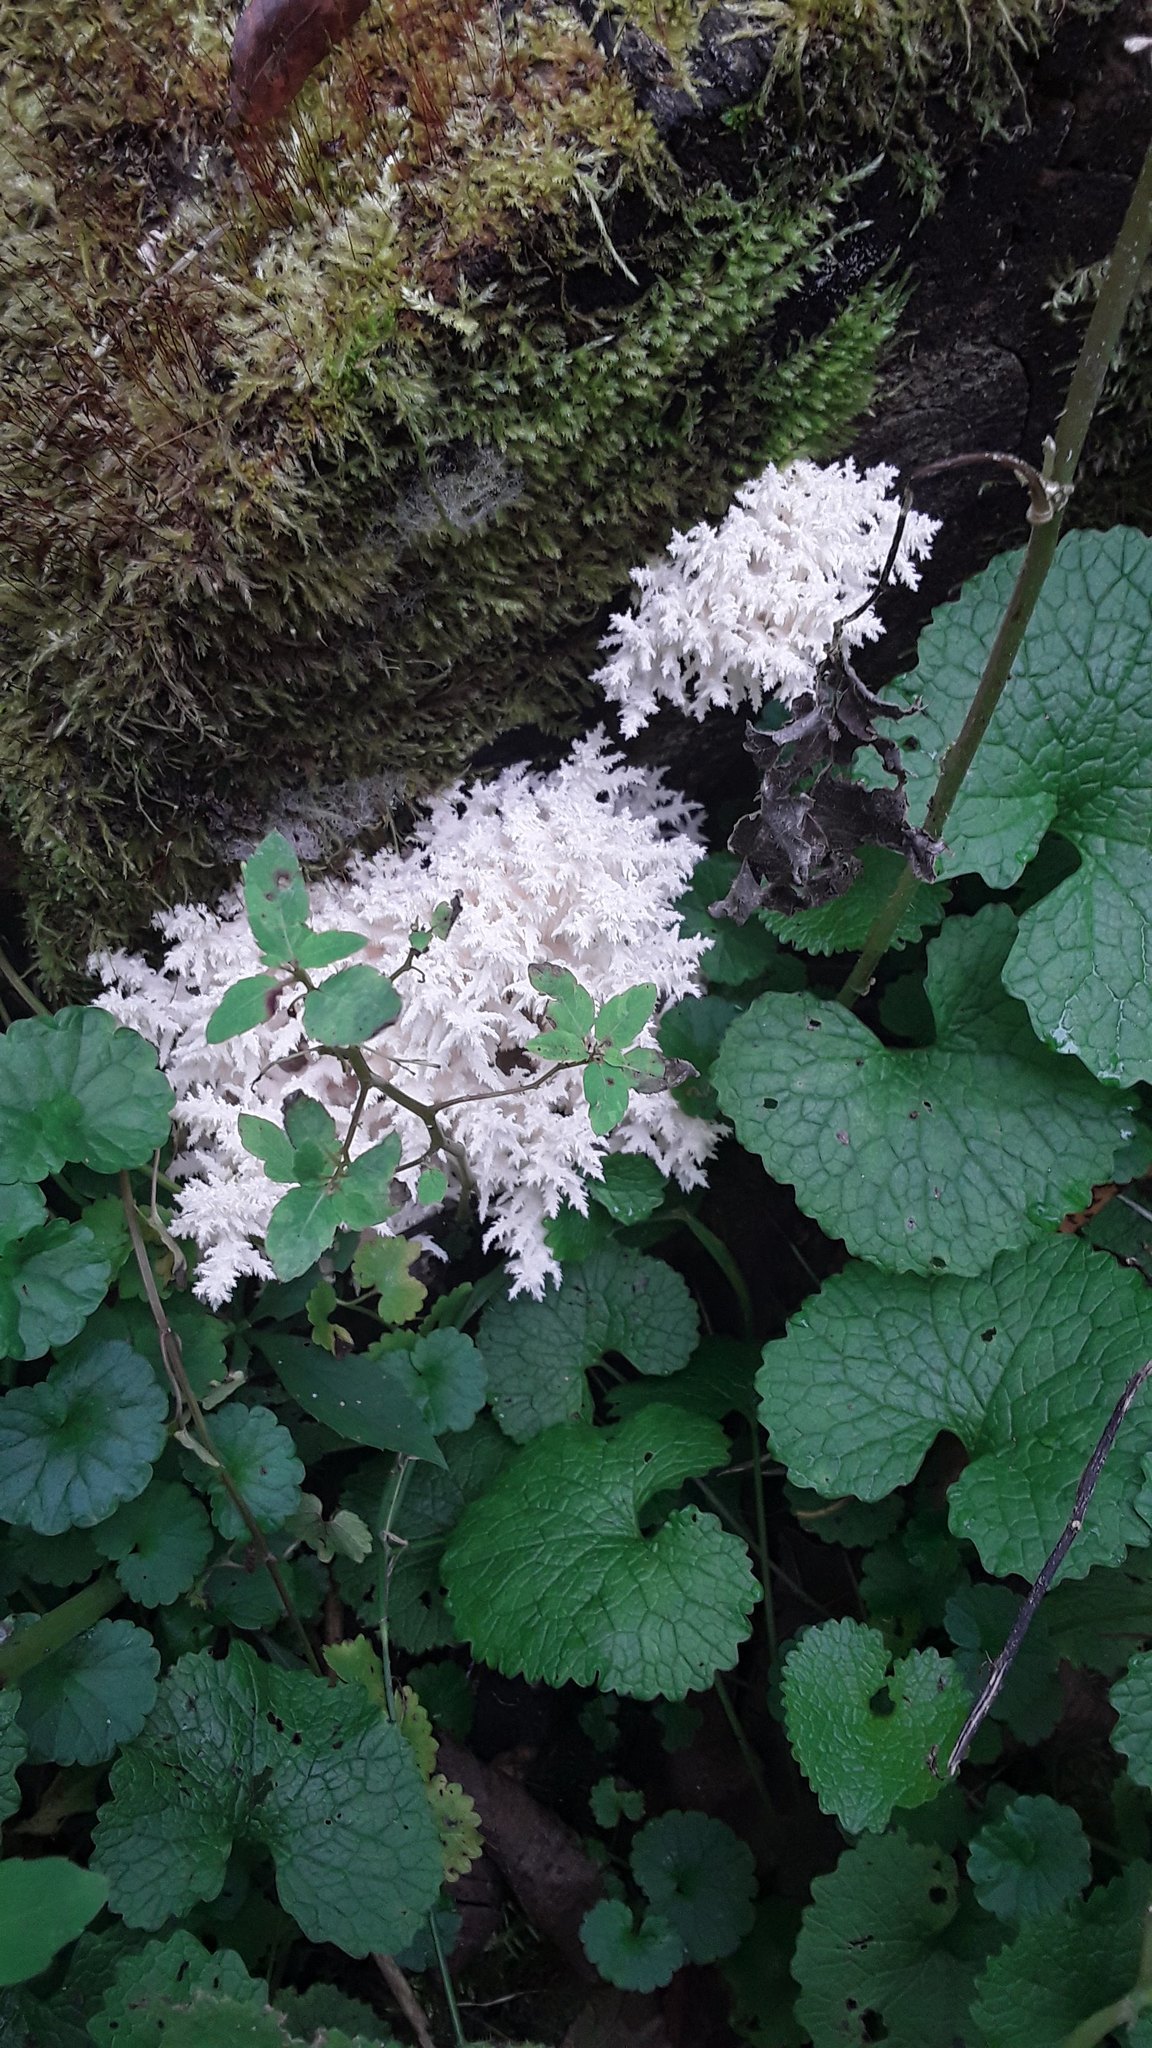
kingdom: Fungi
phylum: Basidiomycota
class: Agaricomycetes
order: Russulales
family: Hericiaceae
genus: Hericium
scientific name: Hericium coralloides
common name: Coral tooth
